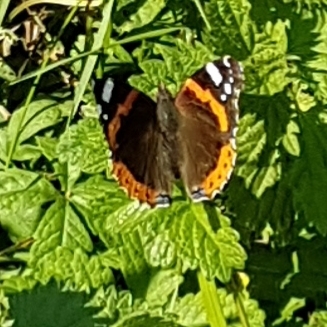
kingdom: Animalia
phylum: Arthropoda
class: Insecta
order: Lepidoptera
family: Nymphalidae
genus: Vanessa
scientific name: Vanessa atalanta
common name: Red admiral
